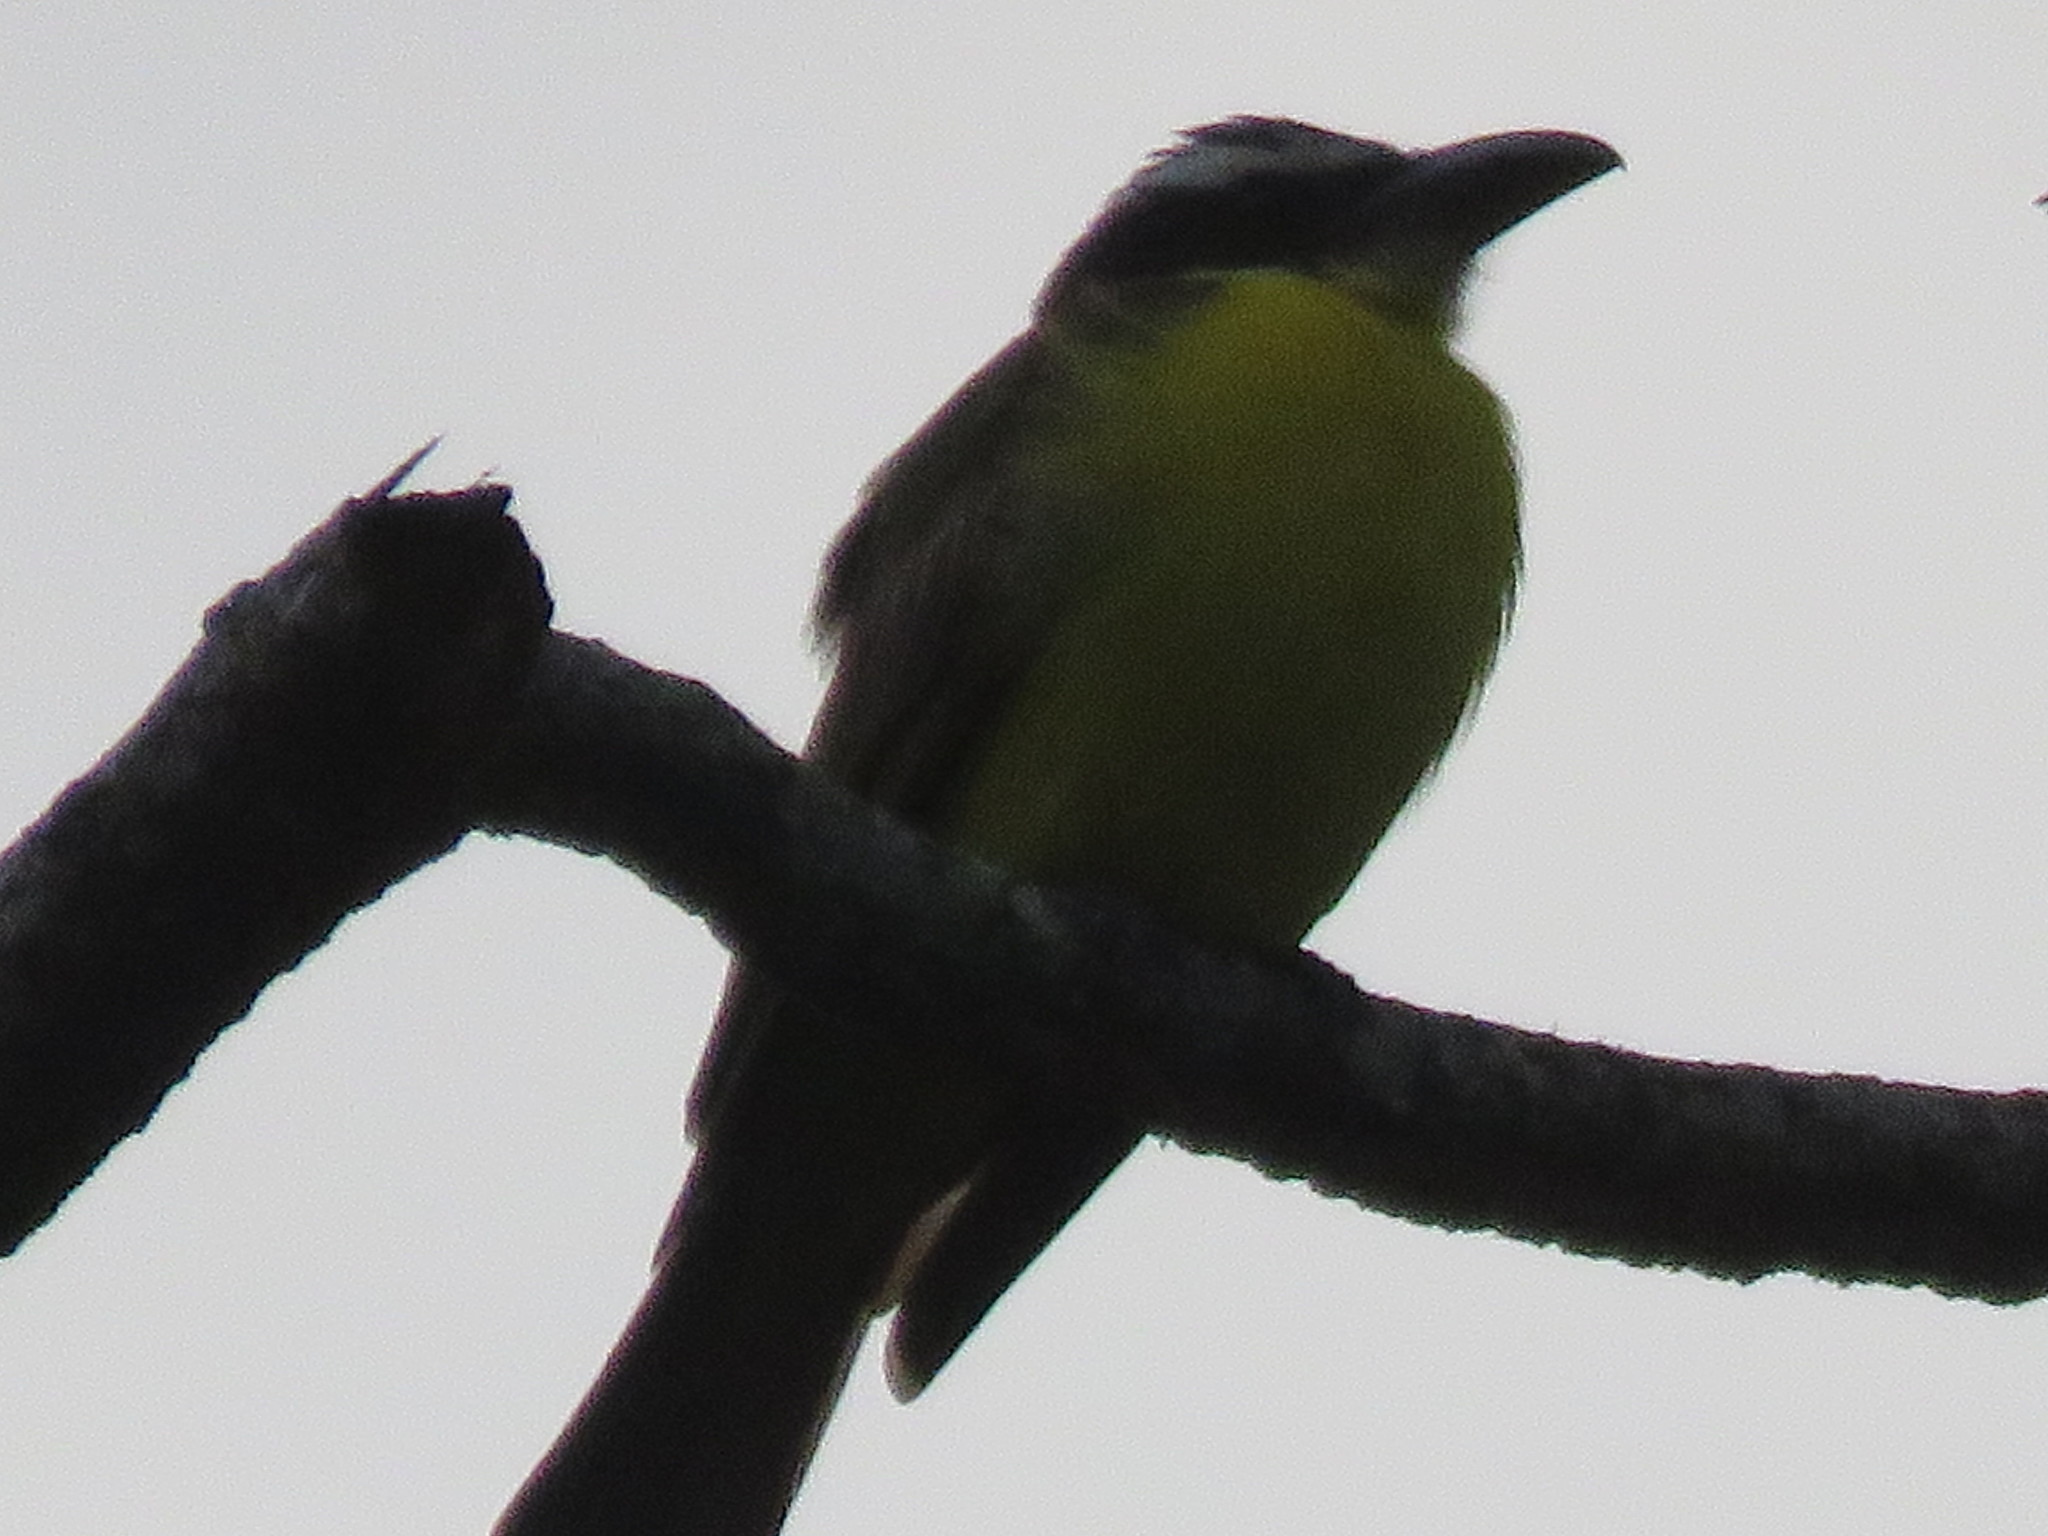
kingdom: Animalia
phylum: Chordata
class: Aves
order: Passeriformes
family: Tyrannidae
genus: Megarynchus
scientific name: Megarynchus pitangua
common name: Boat-billed flycatcher
